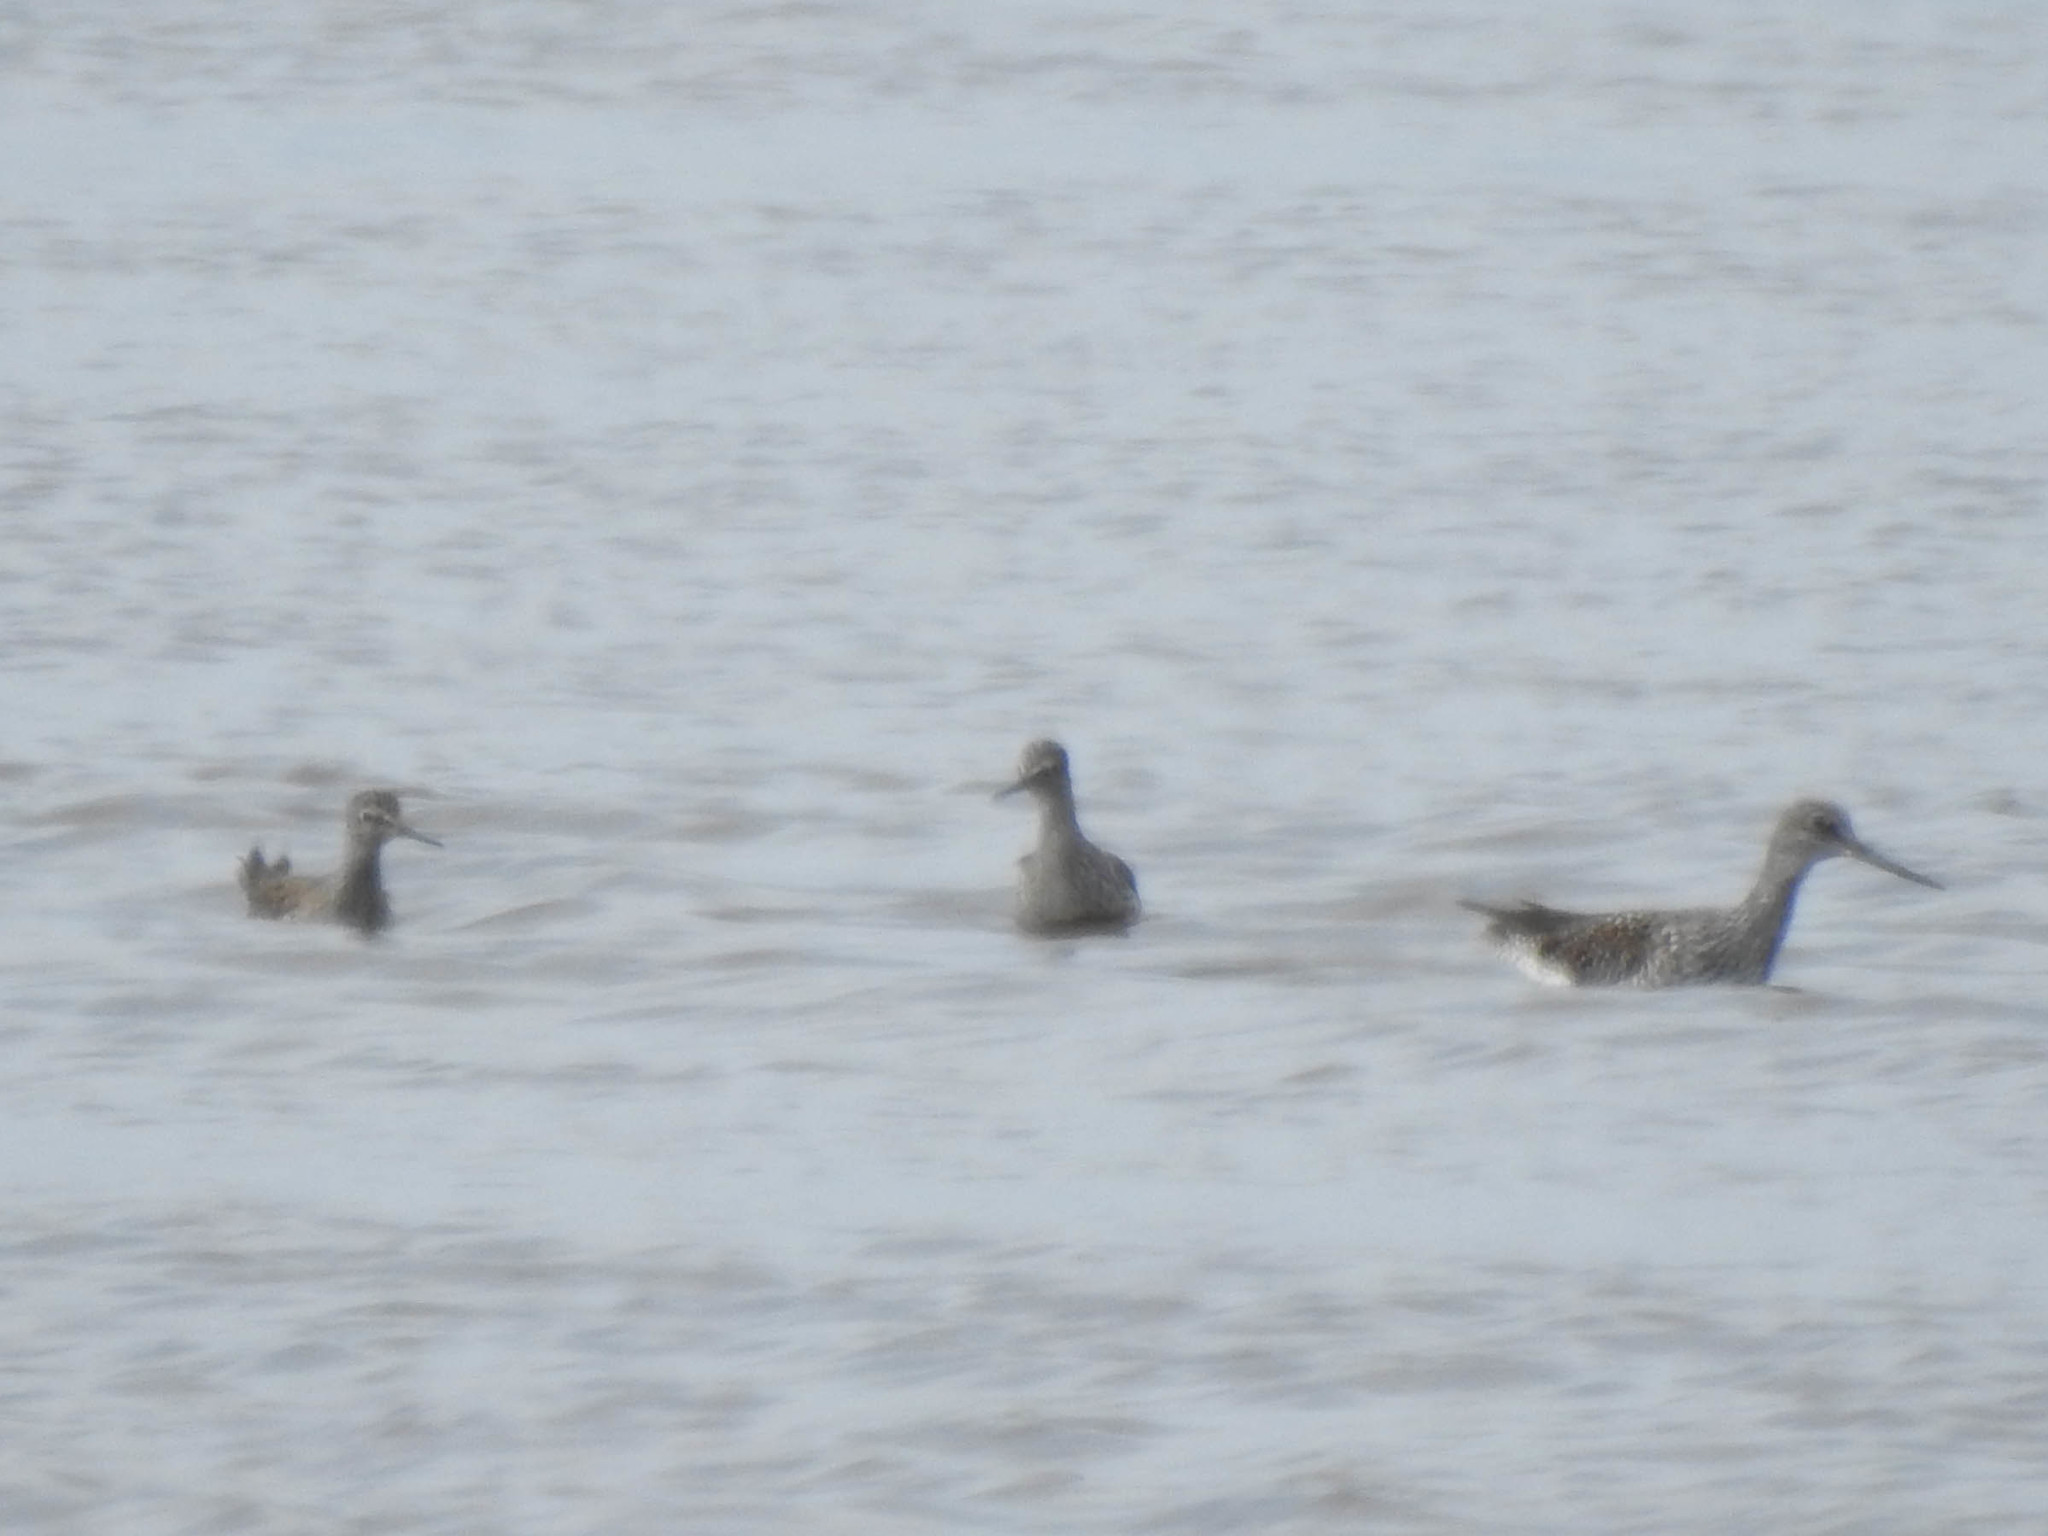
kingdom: Animalia
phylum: Chordata
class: Aves
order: Charadriiformes
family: Scolopacidae
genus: Tringa
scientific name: Tringa melanoleuca
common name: Greater yellowlegs
